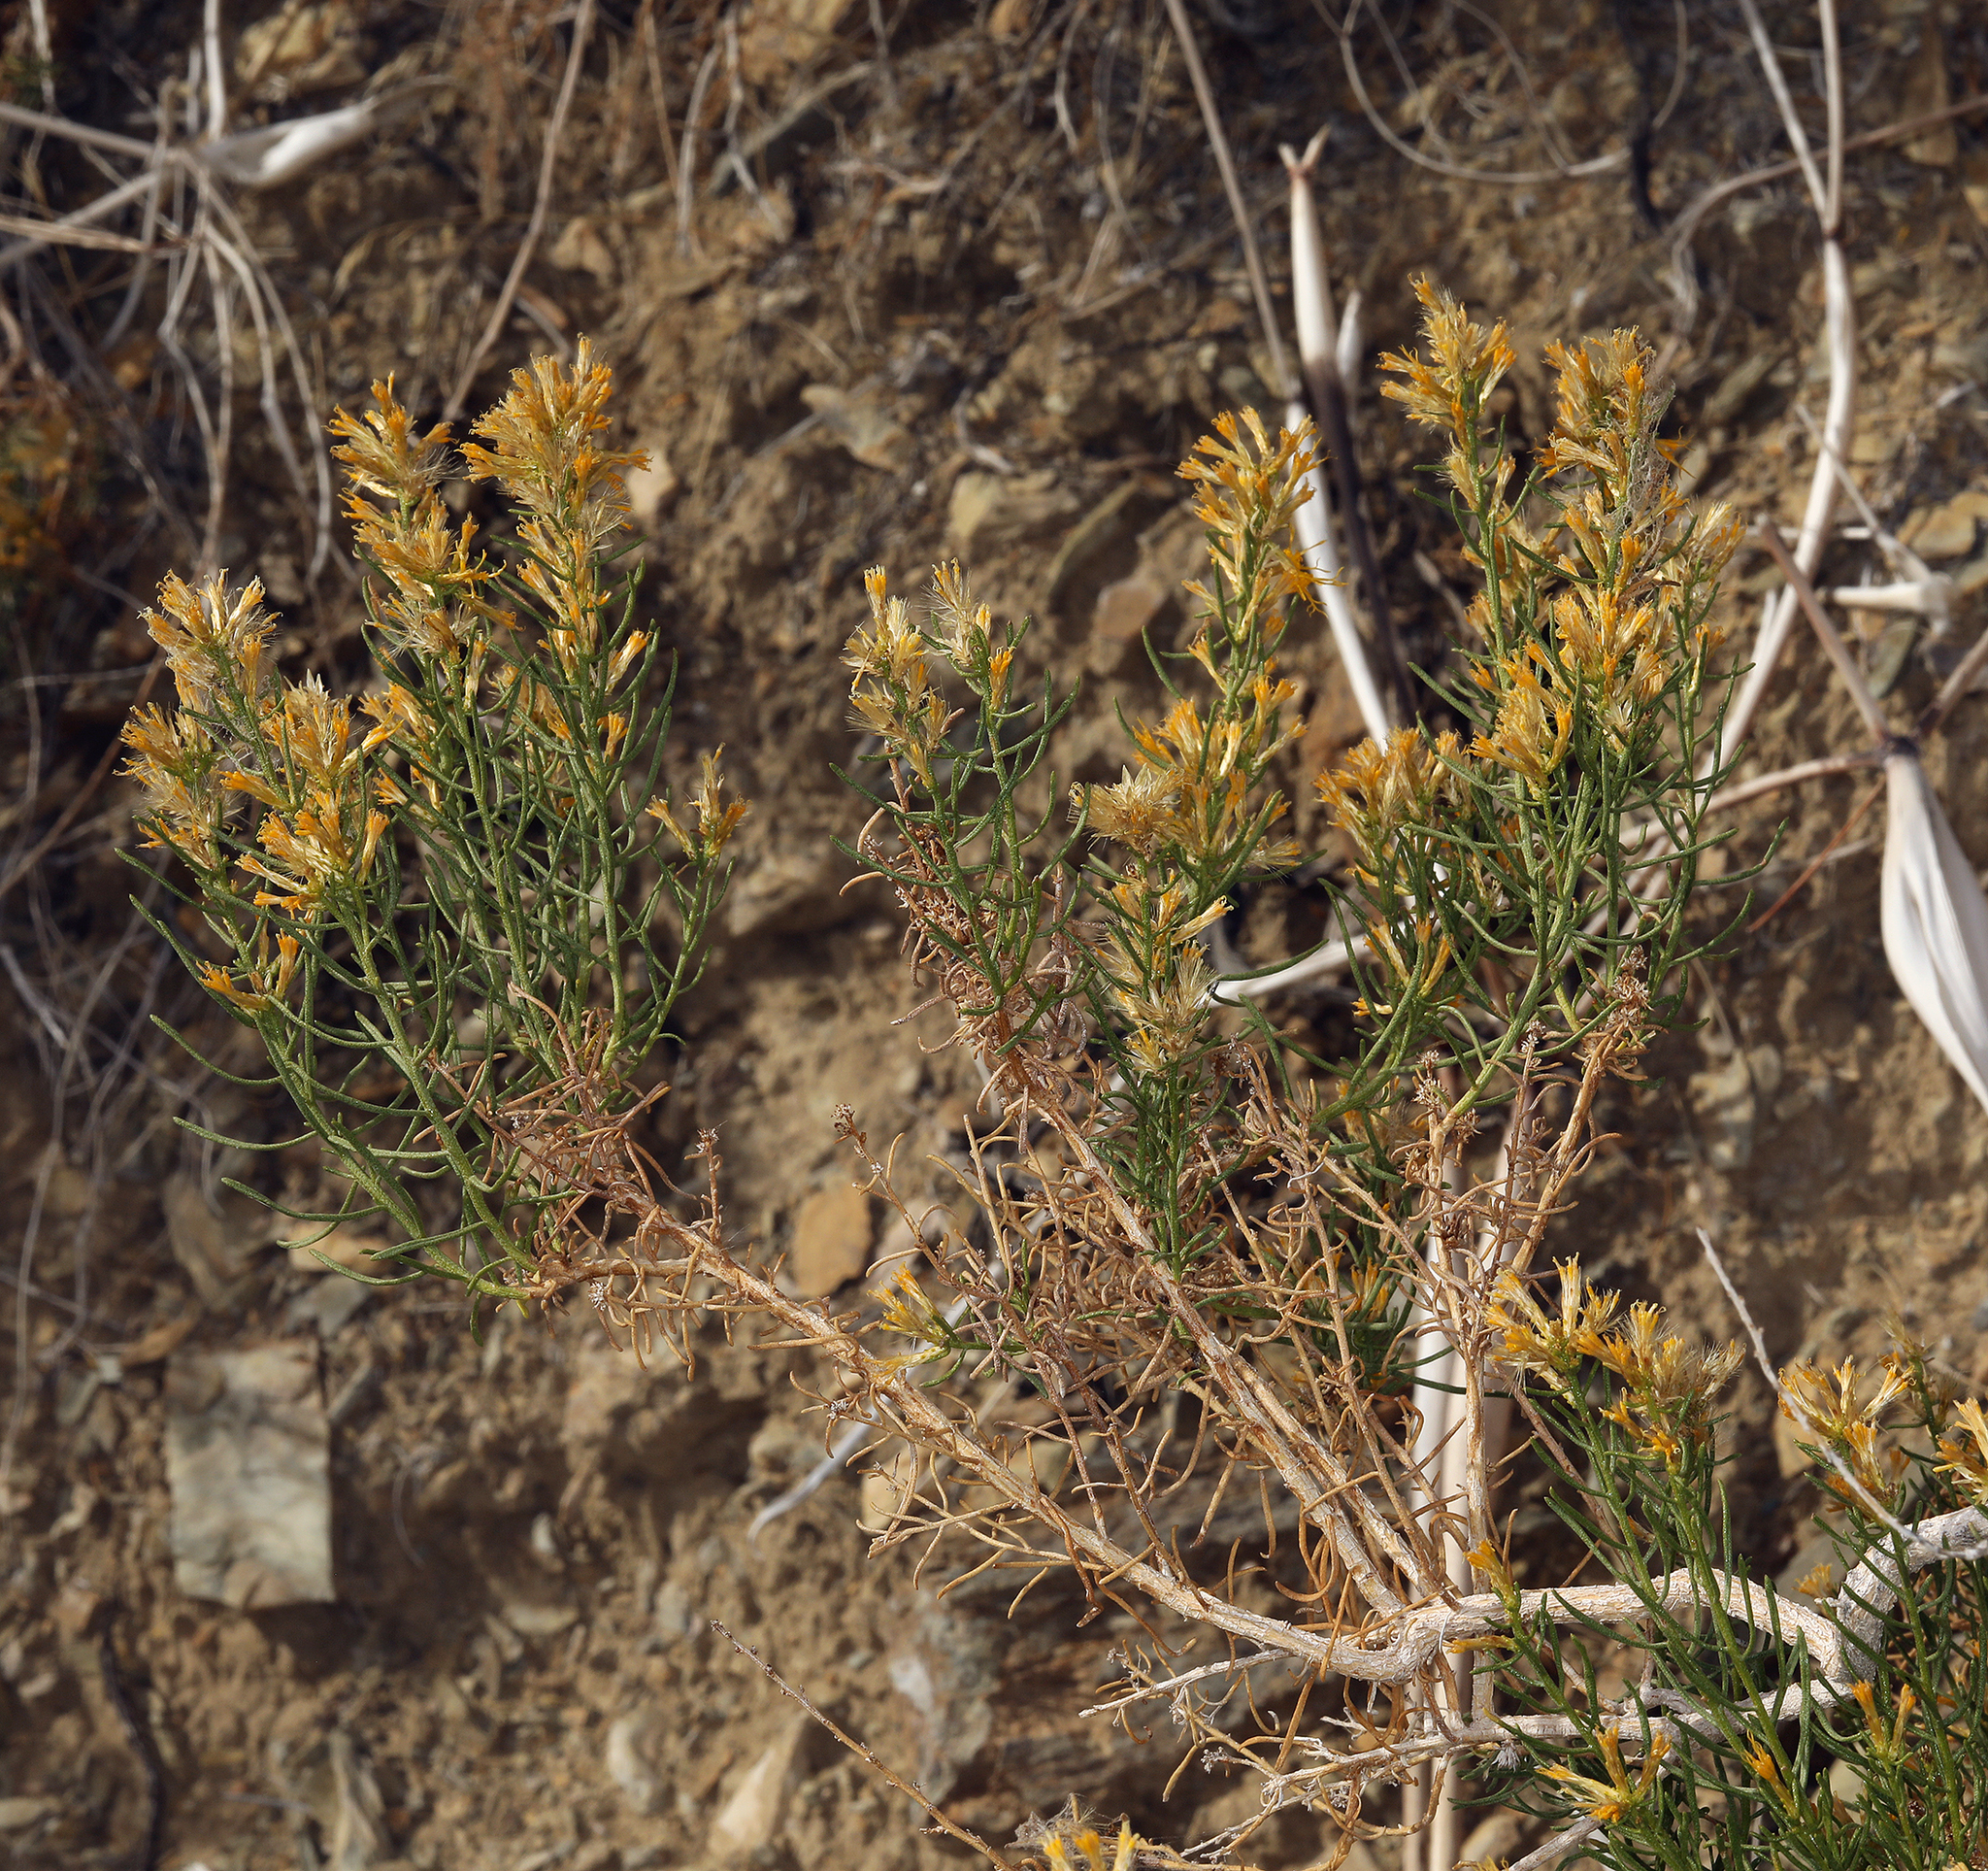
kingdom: Plantae
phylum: Tracheophyta
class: Magnoliopsida
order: Asterales
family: Asteraceae
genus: Ericameria
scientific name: Ericameria teretifolia
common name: Round-leaf rabbitbrush
